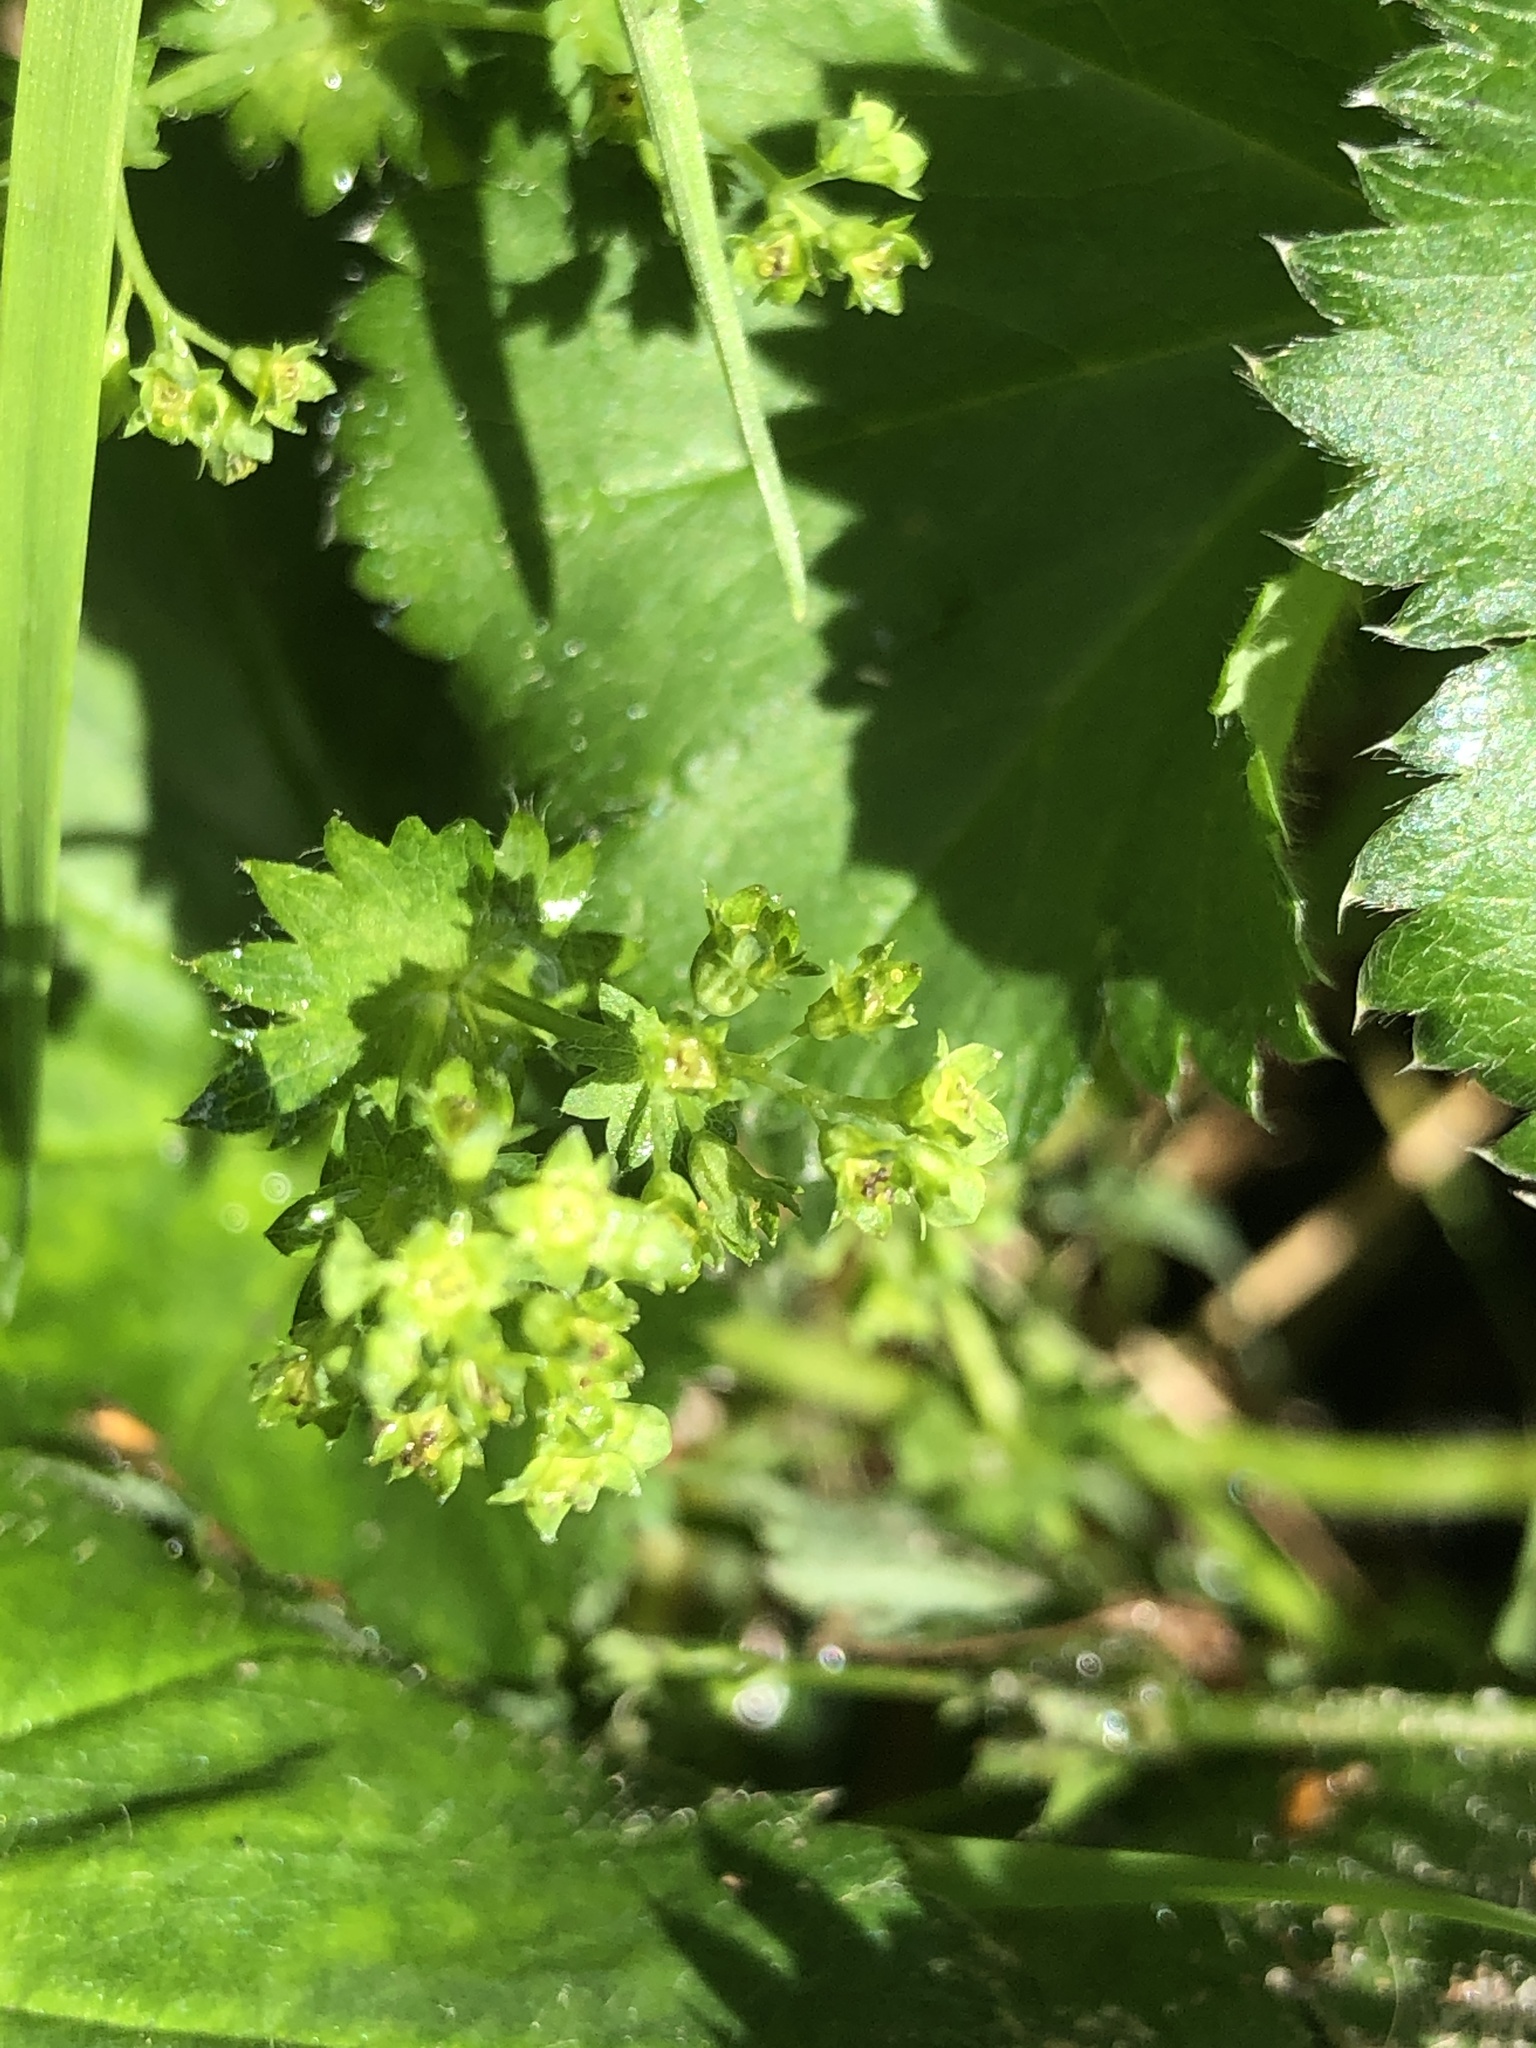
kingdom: Plantae
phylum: Tracheophyta
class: Magnoliopsida
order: Rosales
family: Rosaceae
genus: Alchemilla
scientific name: Alchemilla semilunaris
